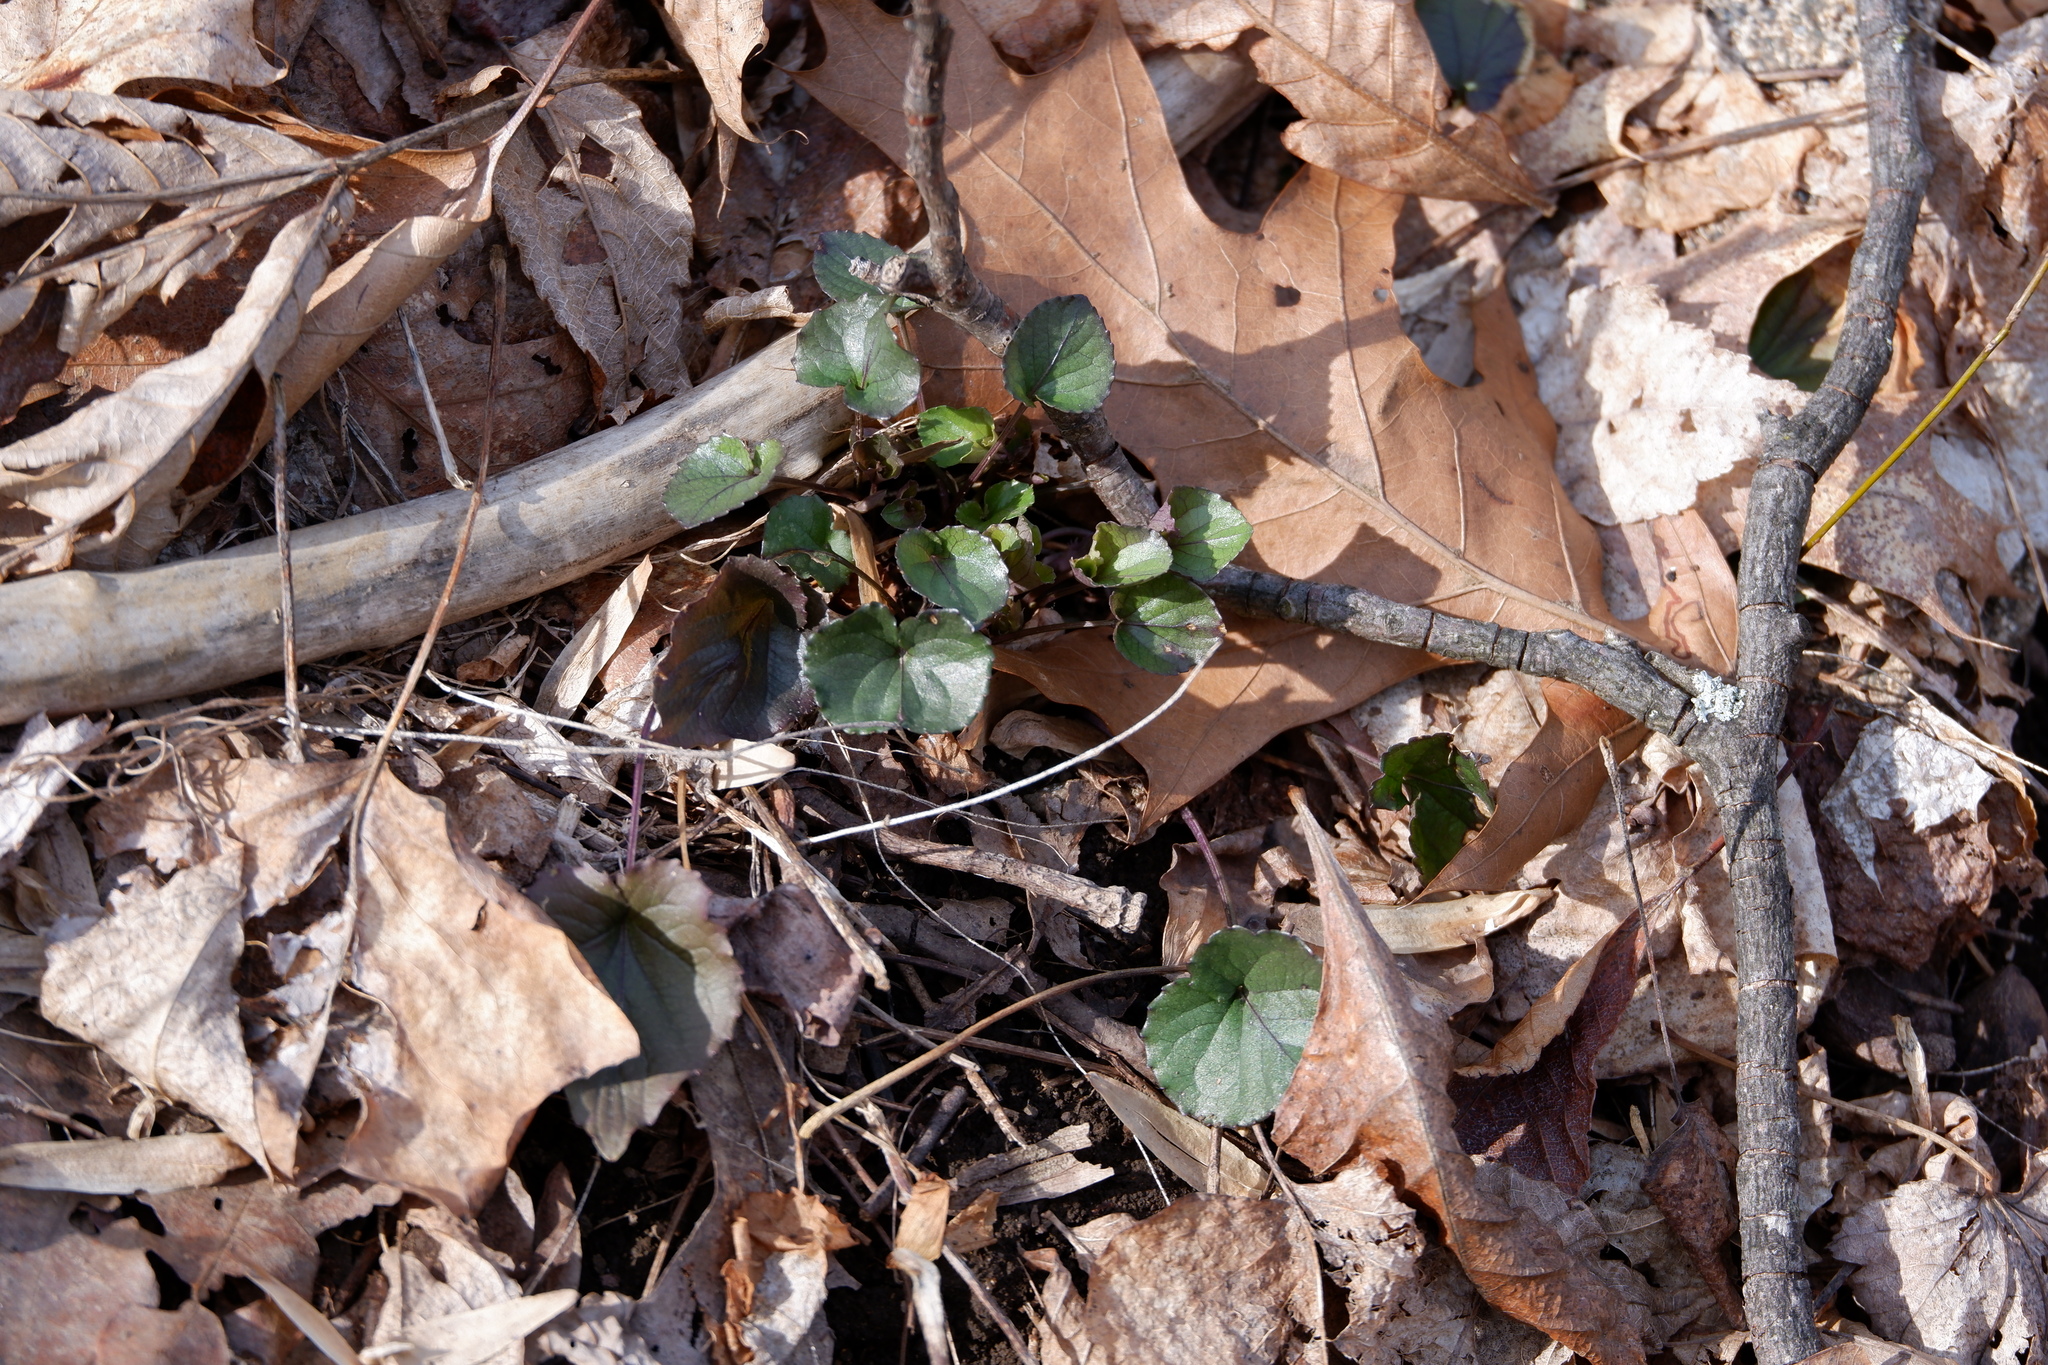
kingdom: Plantae
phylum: Tracheophyta
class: Magnoliopsida
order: Malpighiales
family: Violaceae
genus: Viola
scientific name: Viola rostrata
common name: Long-spur violet
